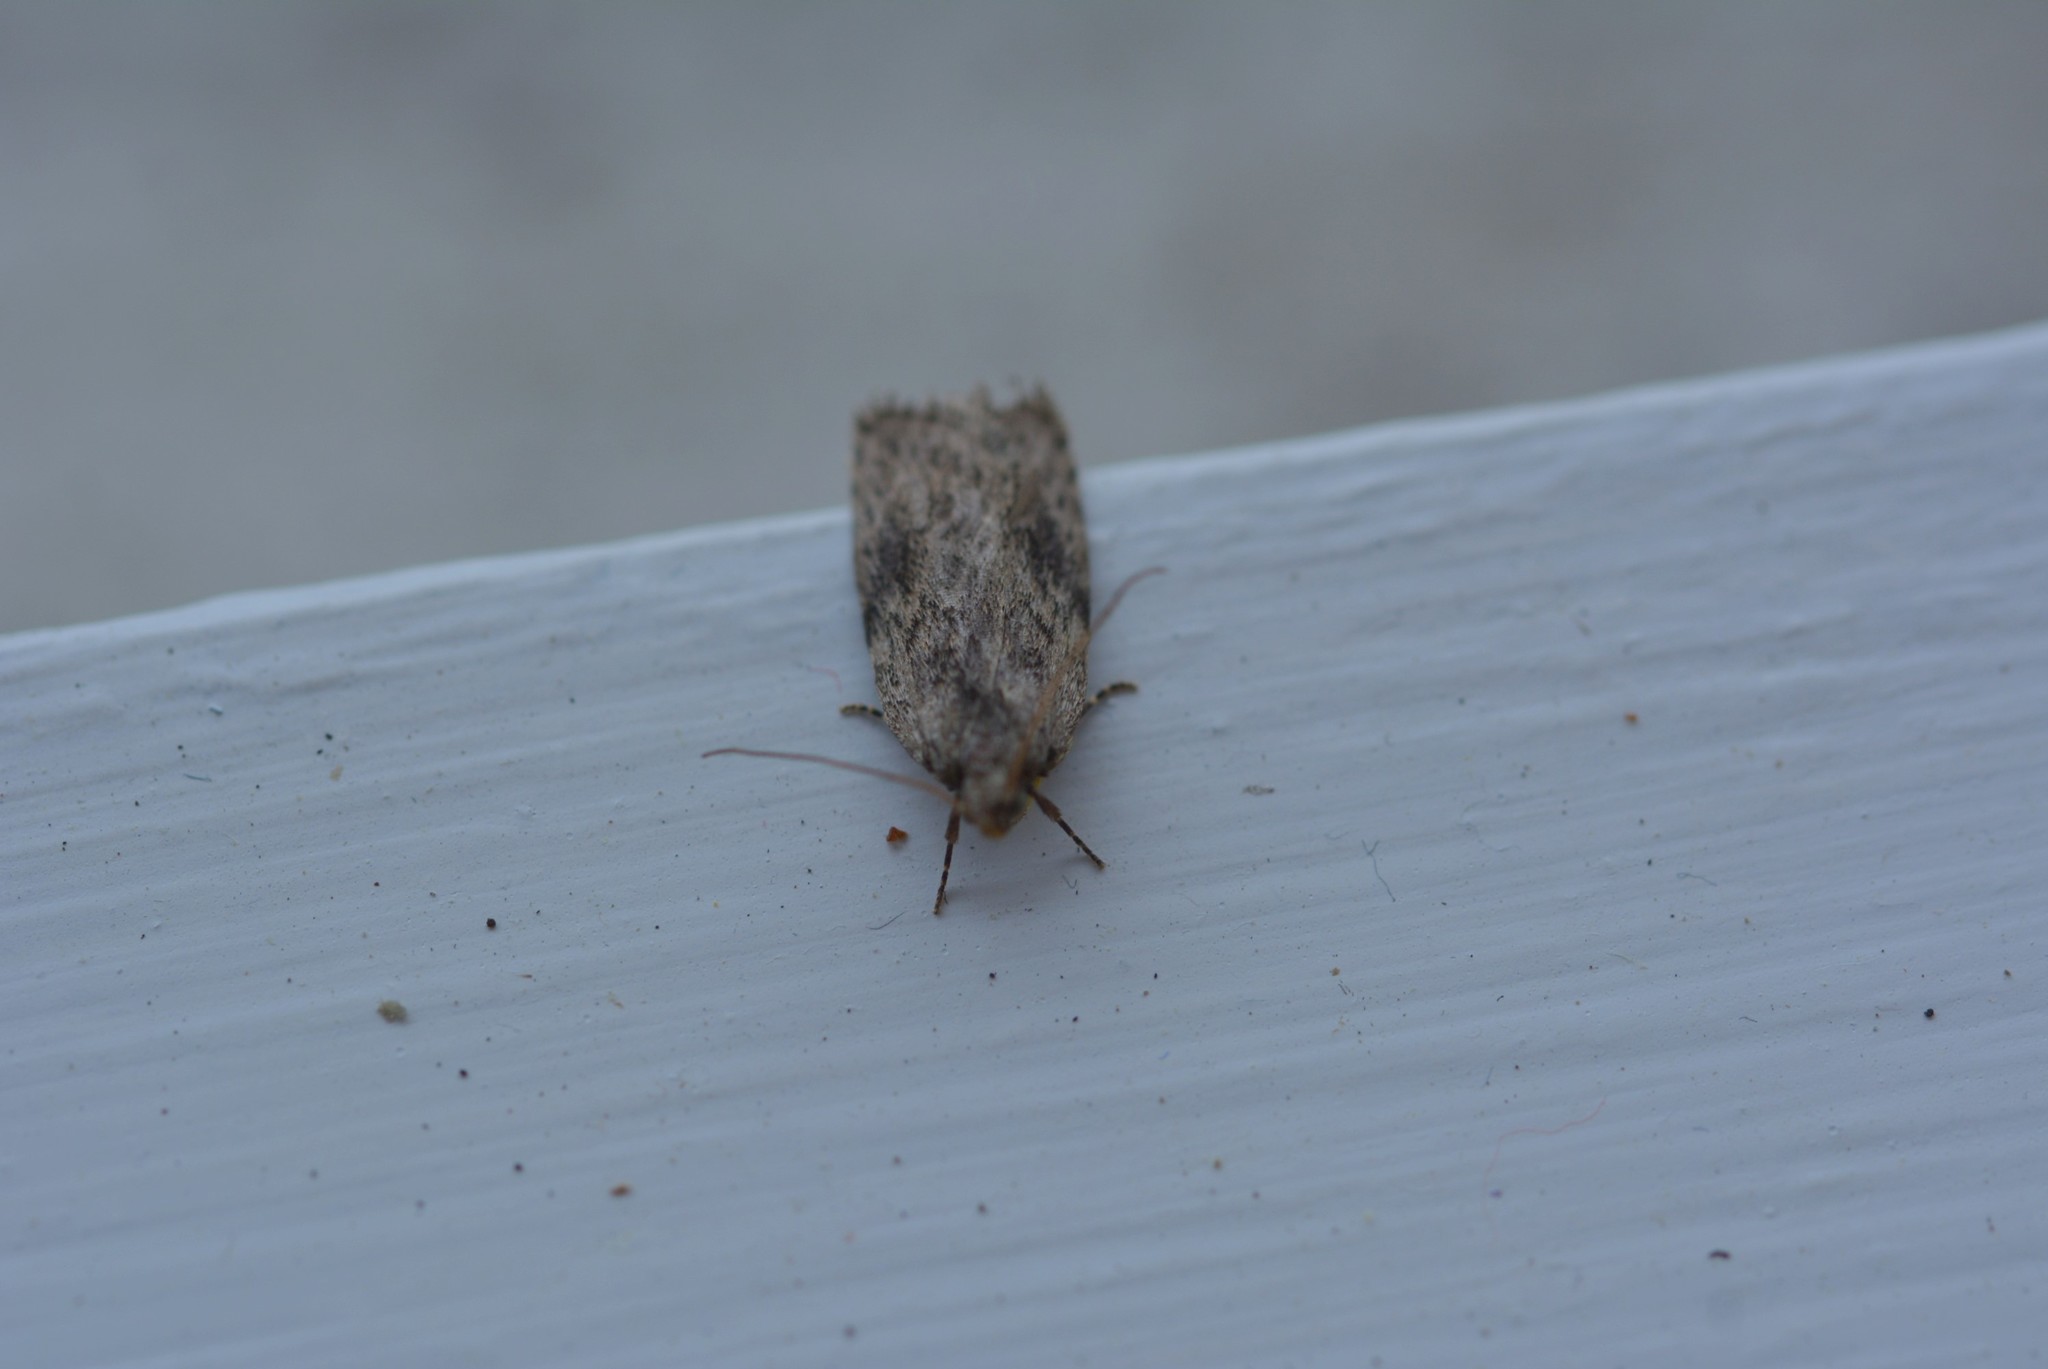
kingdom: Animalia
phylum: Arthropoda
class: Insecta
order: Lepidoptera
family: Depressariidae
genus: Phaeosaces
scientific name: Phaeosaces compsotypa
